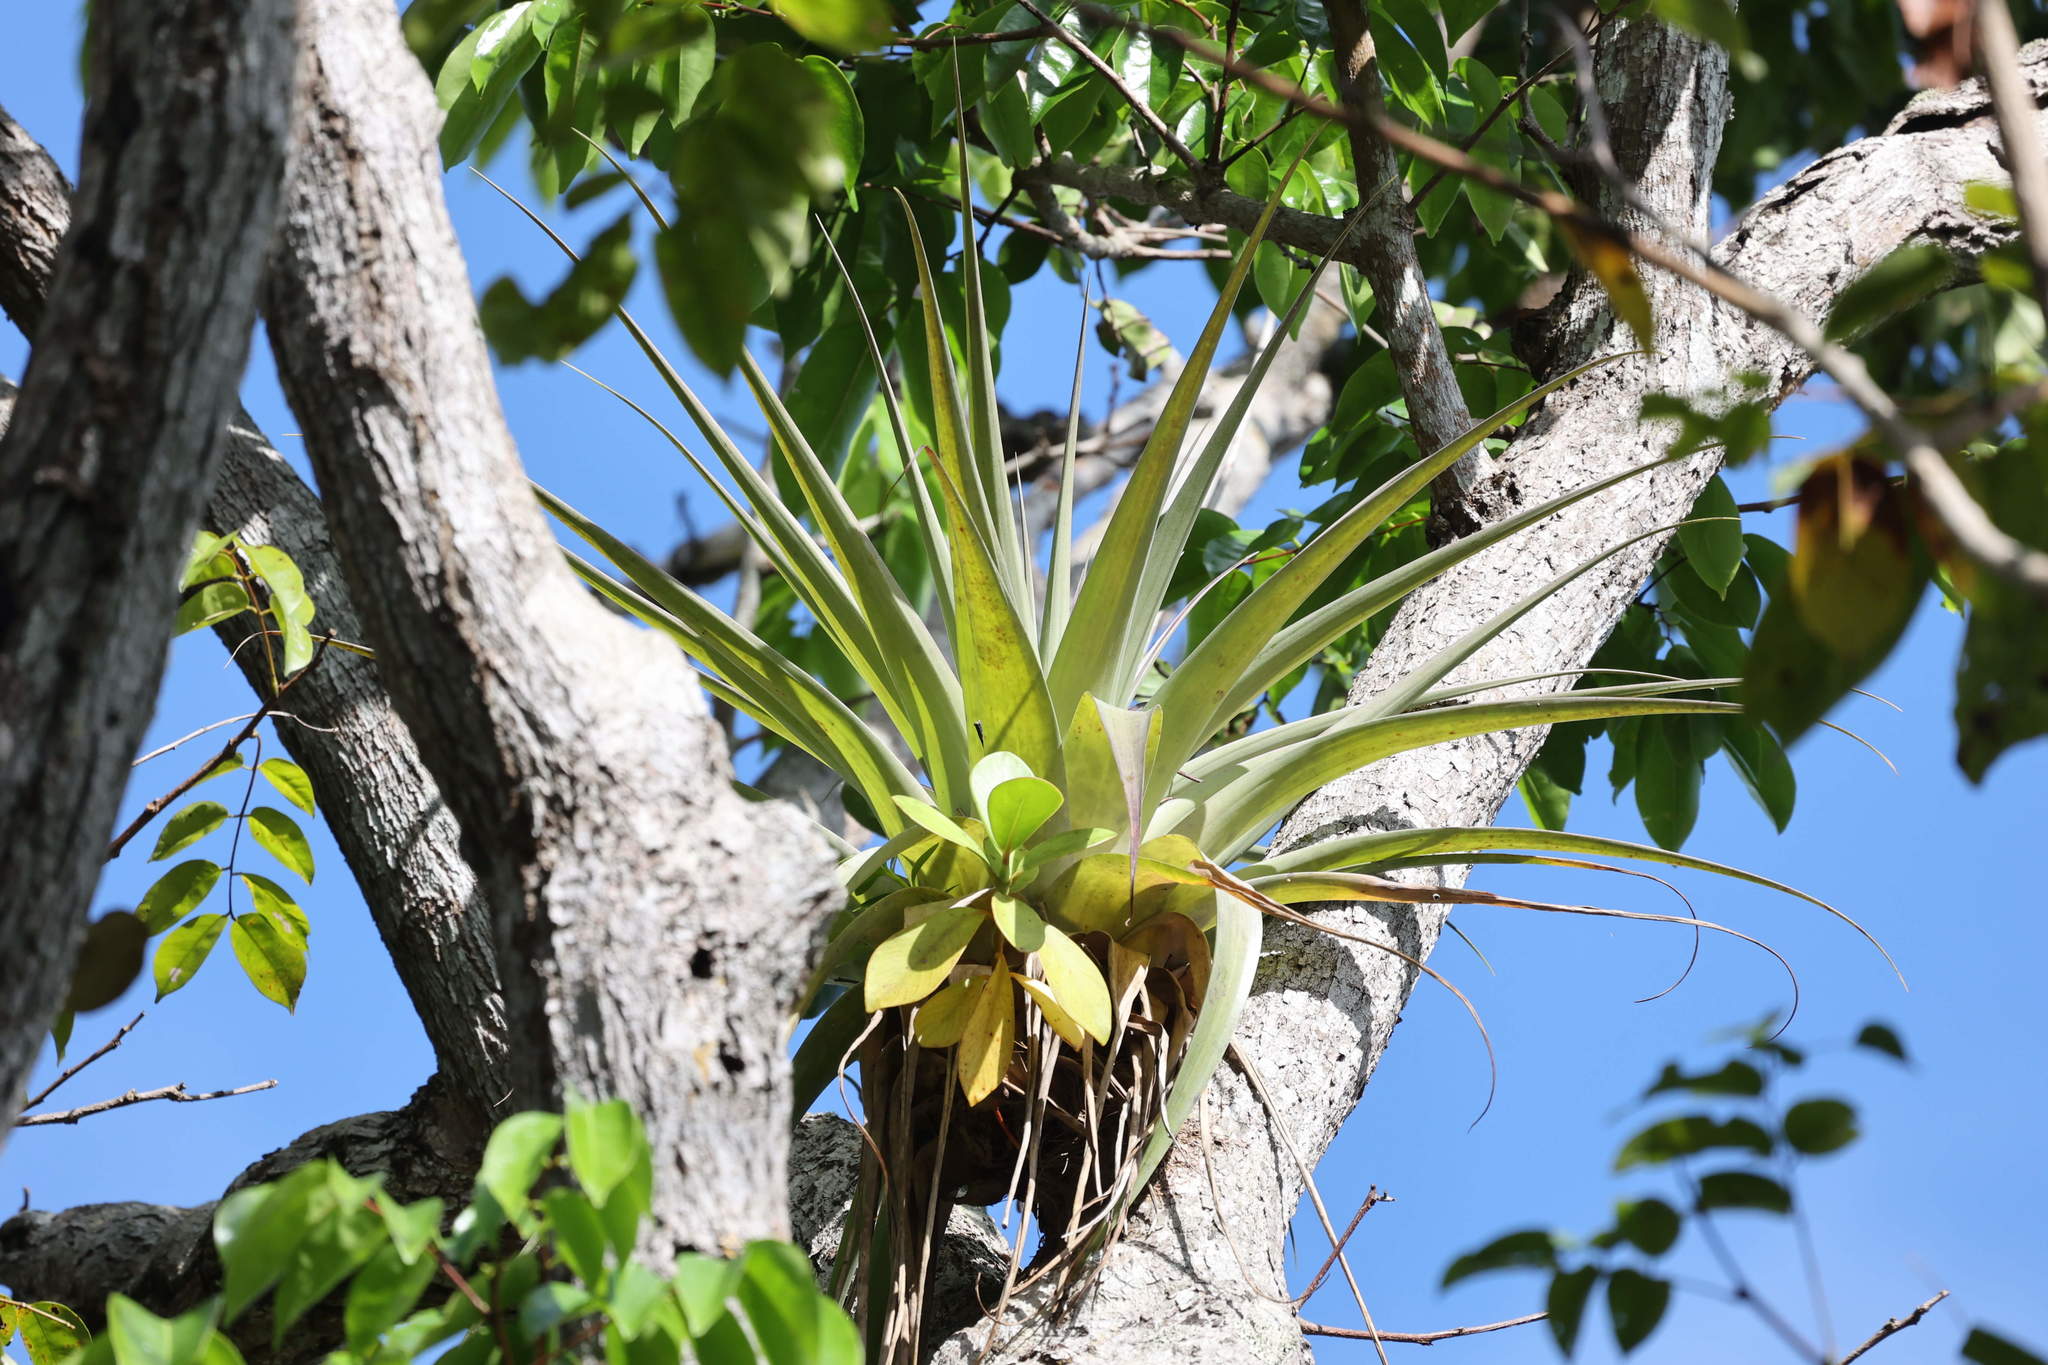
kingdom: Plantae
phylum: Tracheophyta
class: Liliopsida
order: Poales
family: Bromeliaceae
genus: Tillandsia
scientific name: Tillandsia utriculata
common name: Wild pine
